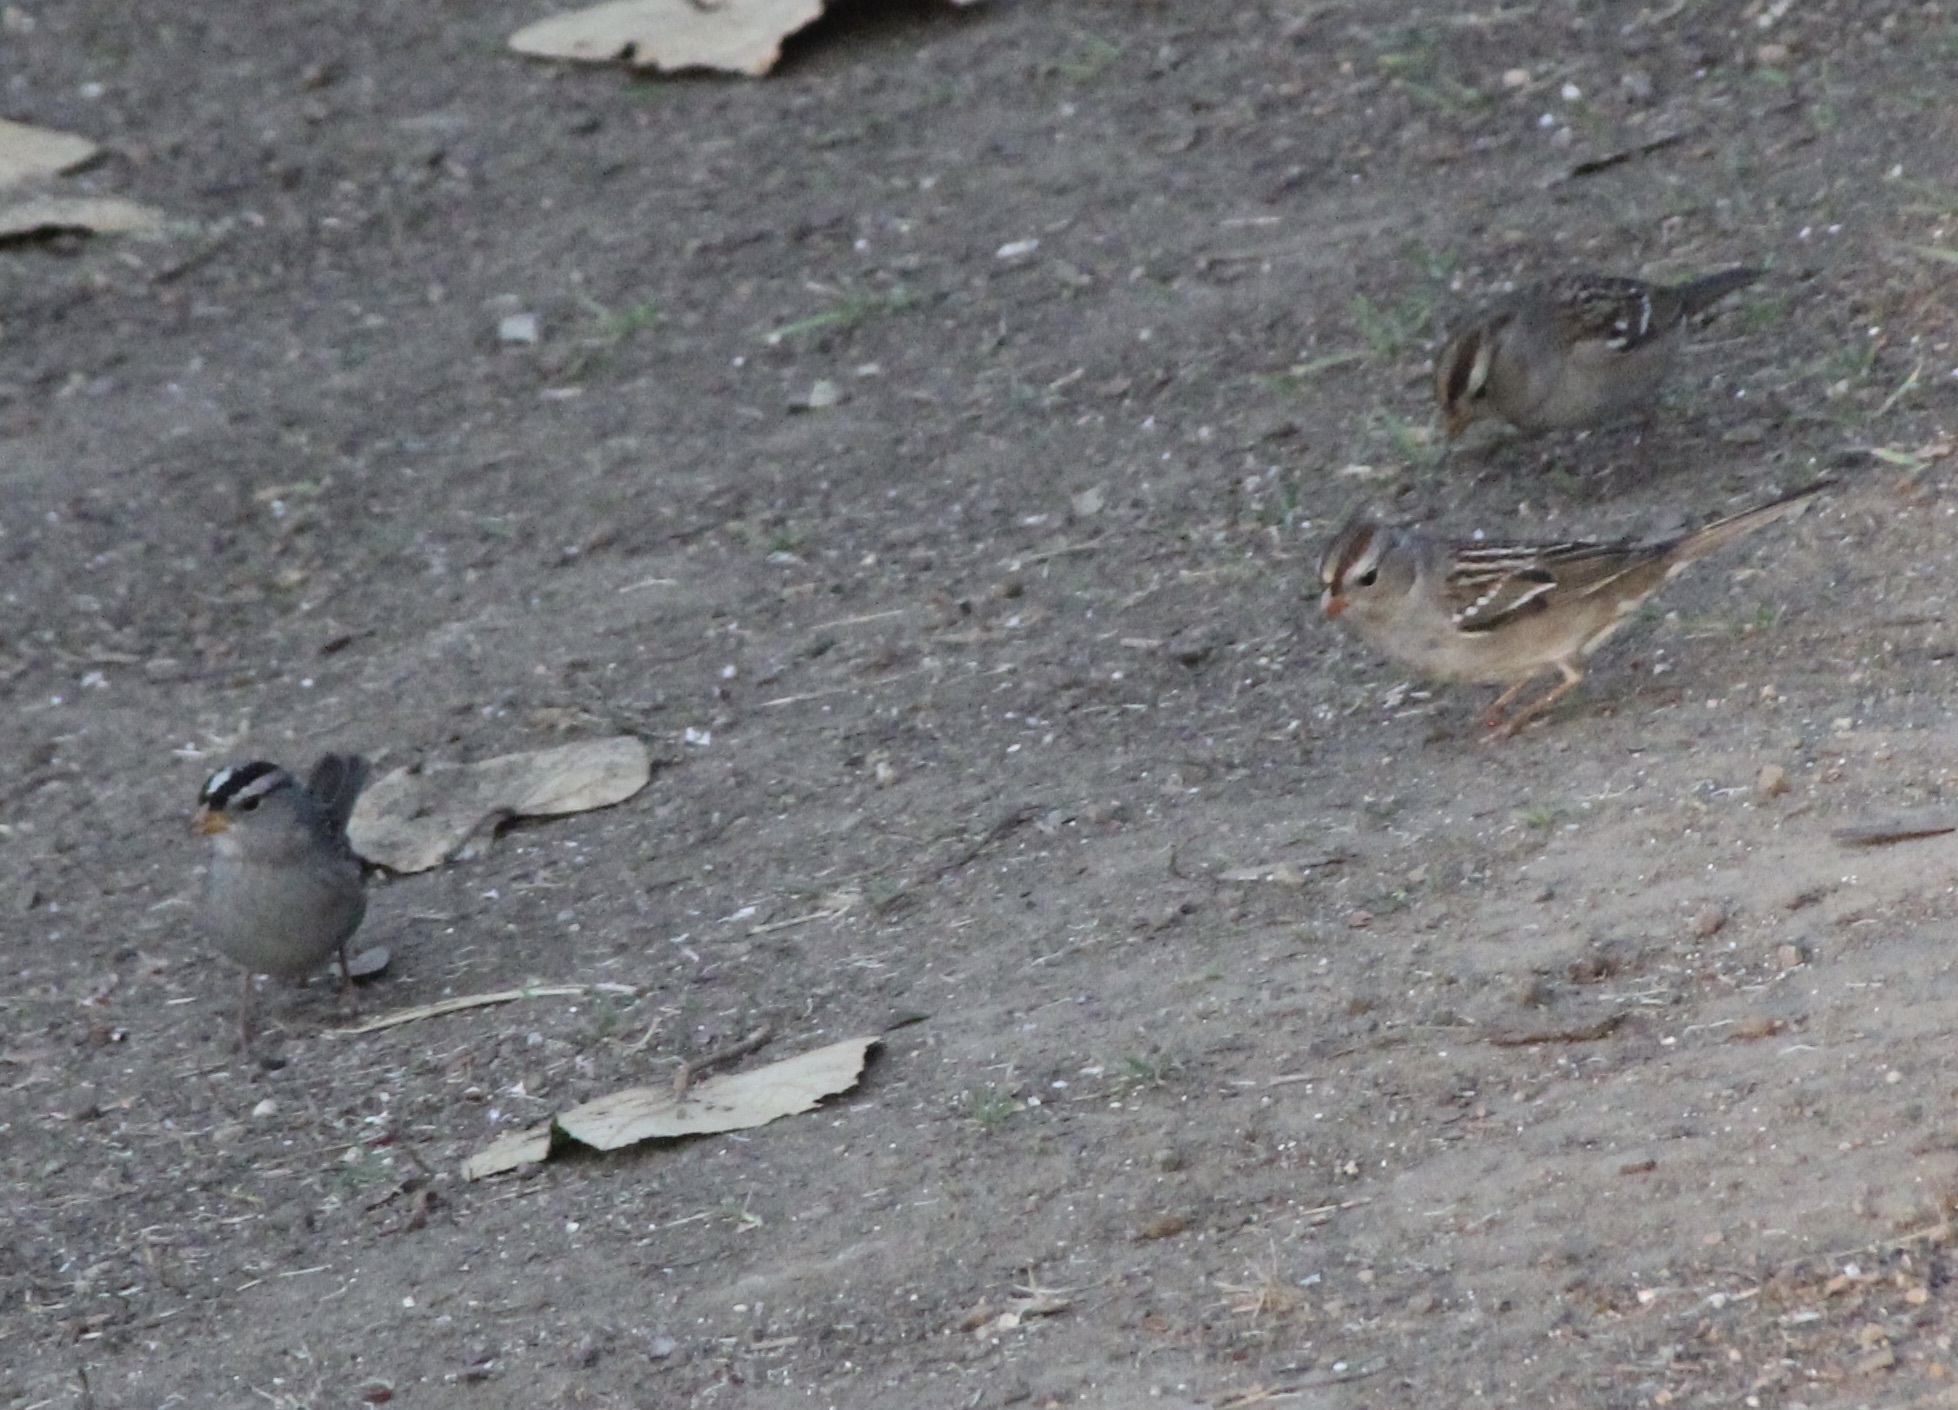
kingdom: Animalia
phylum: Chordata
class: Aves
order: Passeriformes
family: Passerellidae
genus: Zonotrichia
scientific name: Zonotrichia leucophrys
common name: White-crowned sparrow
